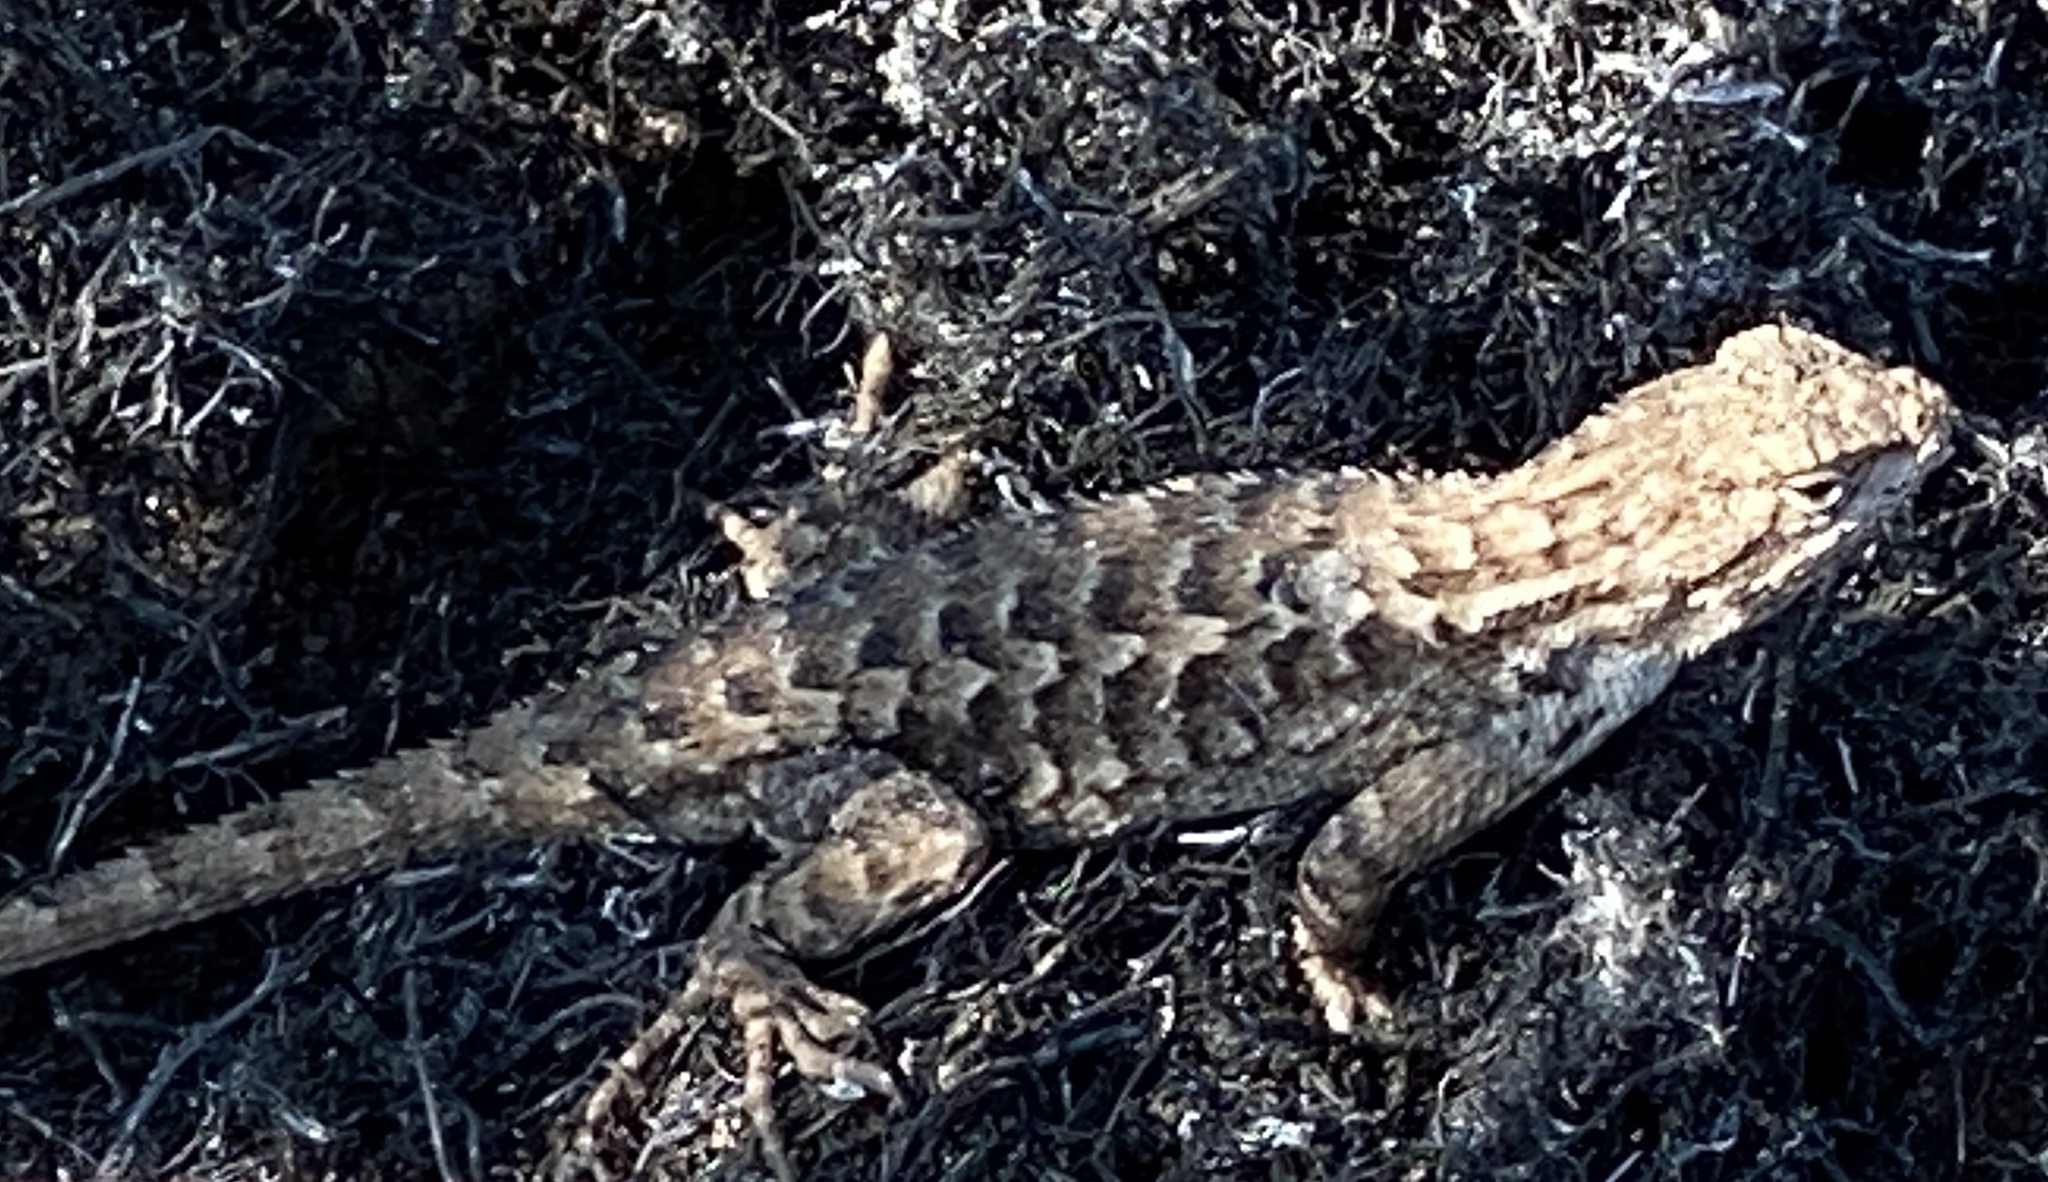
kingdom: Animalia
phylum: Chordata
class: Squamata
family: Phrynosomatidae
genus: Sceloporus
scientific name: Sceloporus occidentalis
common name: Western fence lizard
